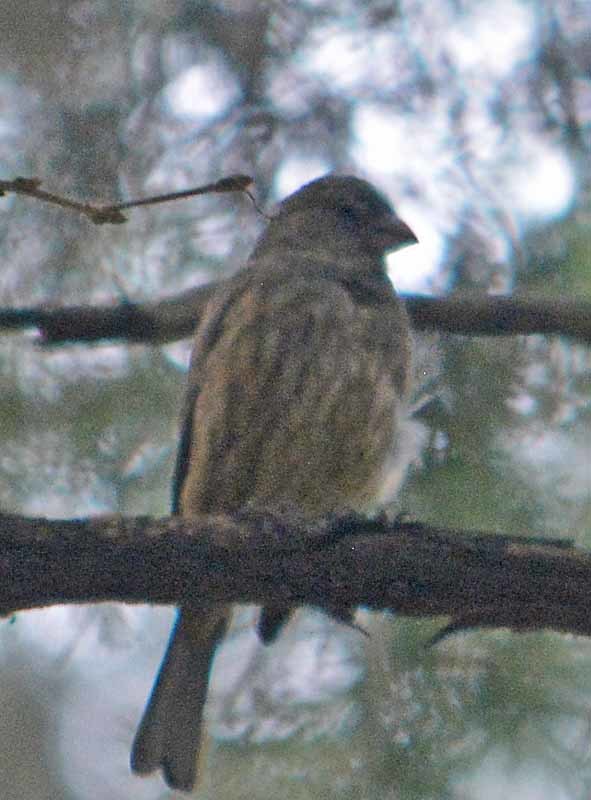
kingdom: Animalia
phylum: Chordata
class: Aves
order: Passeriformes
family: Fringillidae
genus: Haemorhous
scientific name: Haemorhous mexicanus
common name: House finch
